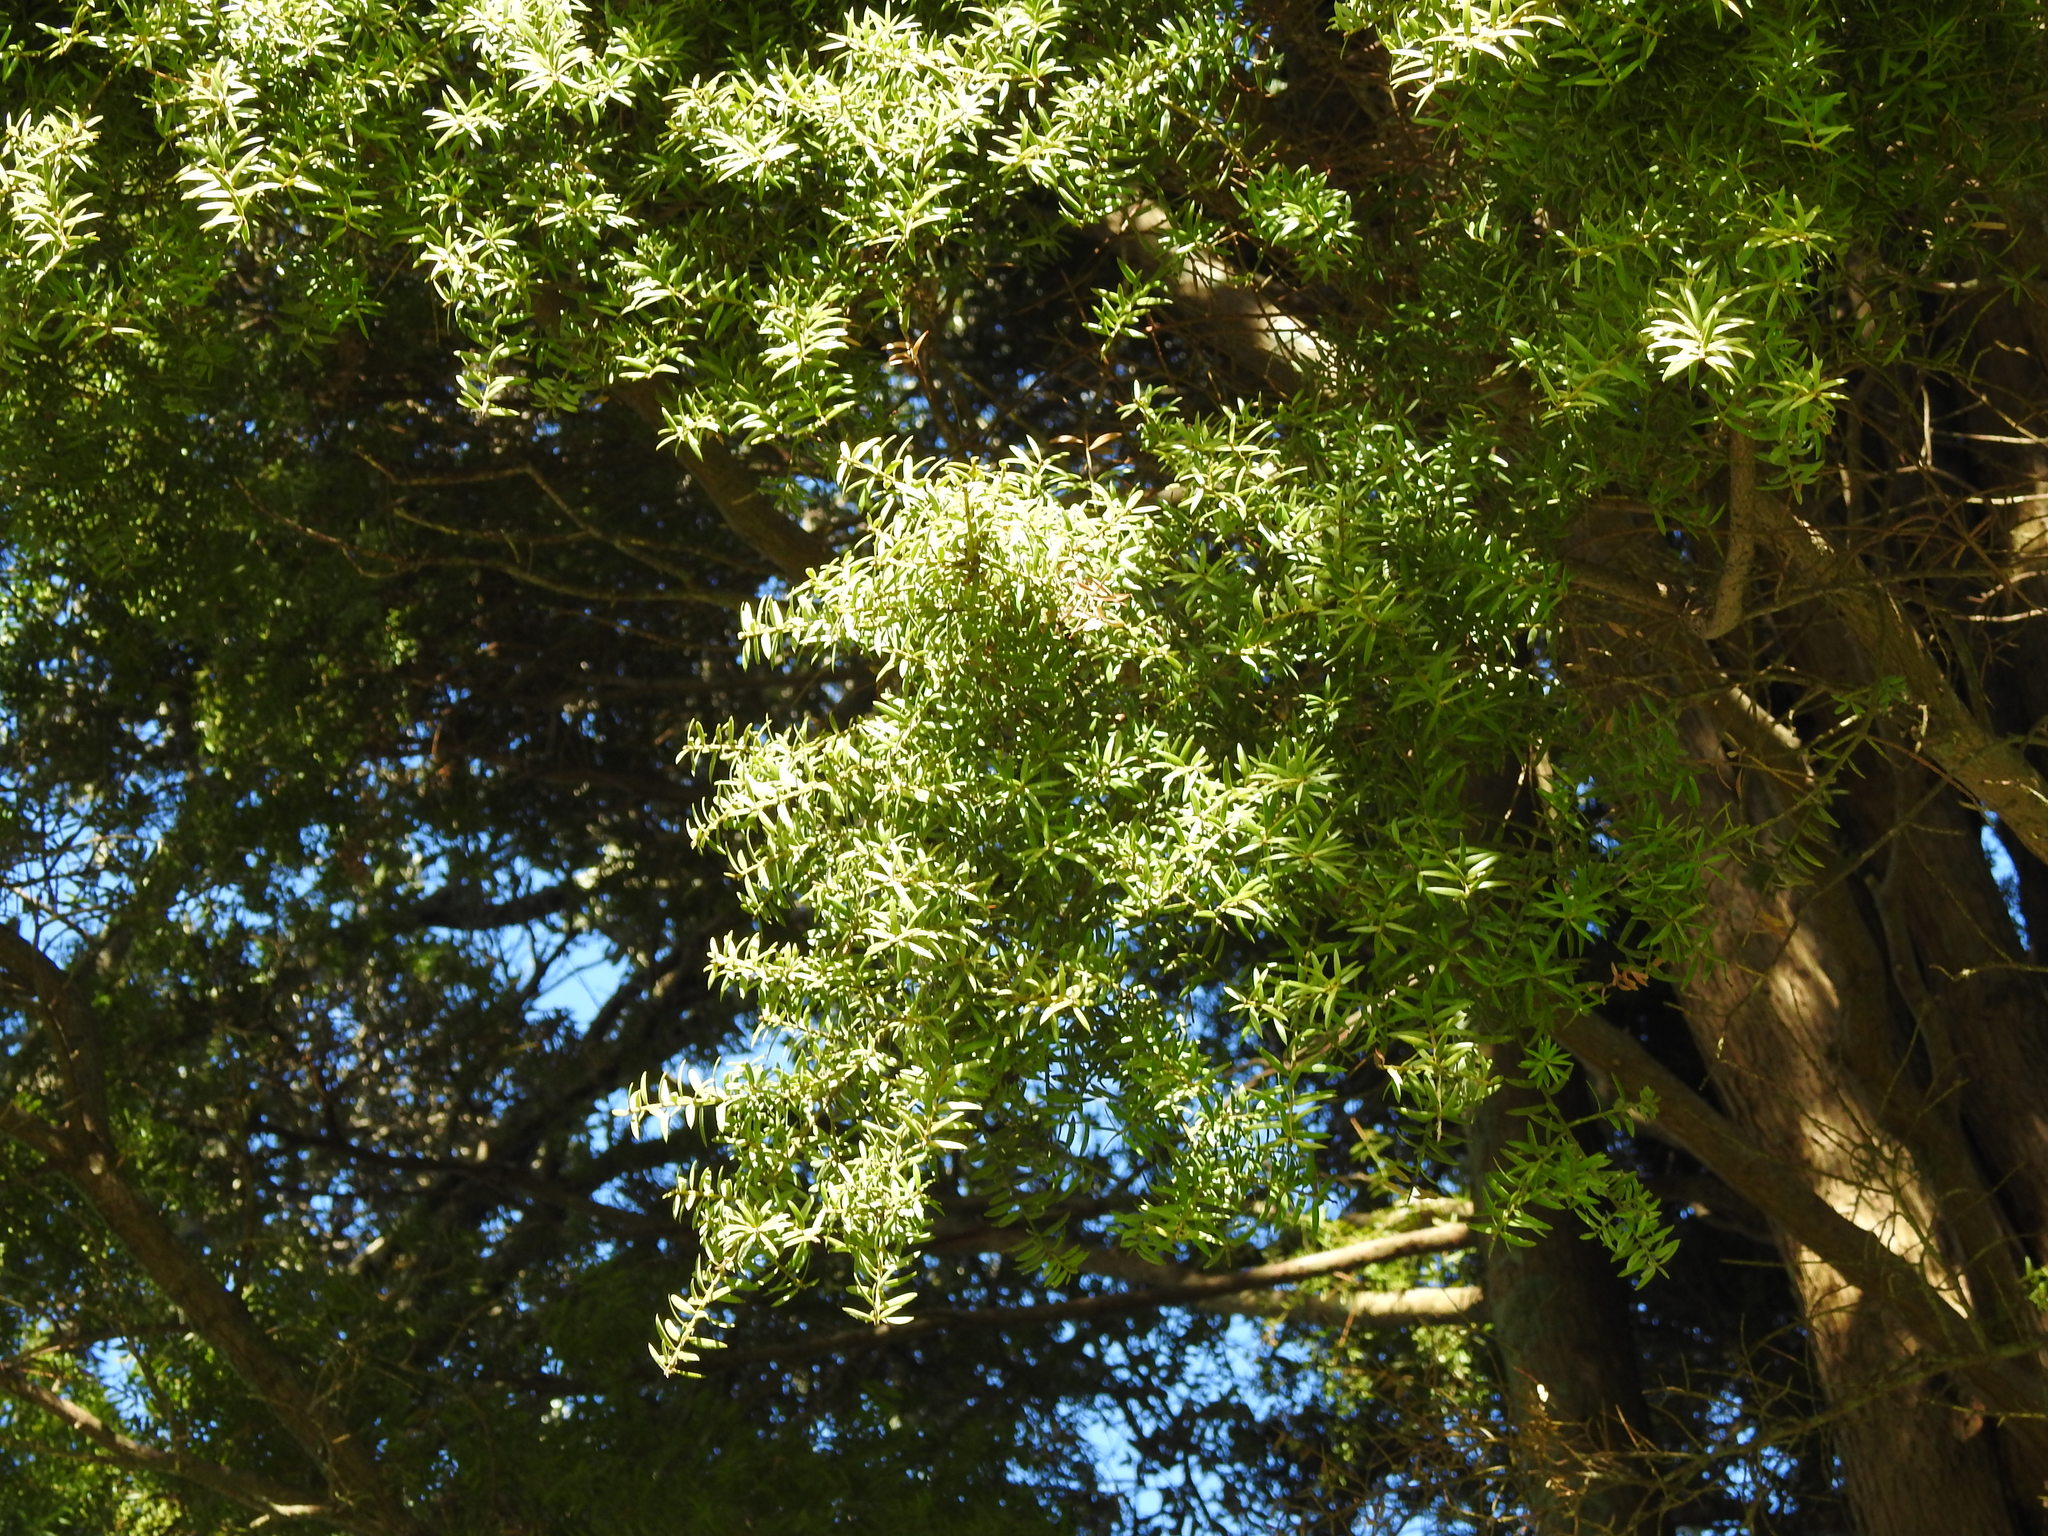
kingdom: Plantae
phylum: Tracheophyta
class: Pinopsida
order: Pinales
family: Podocarpaceae
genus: Podocarpus
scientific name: Podocarpus totara
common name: Totara
